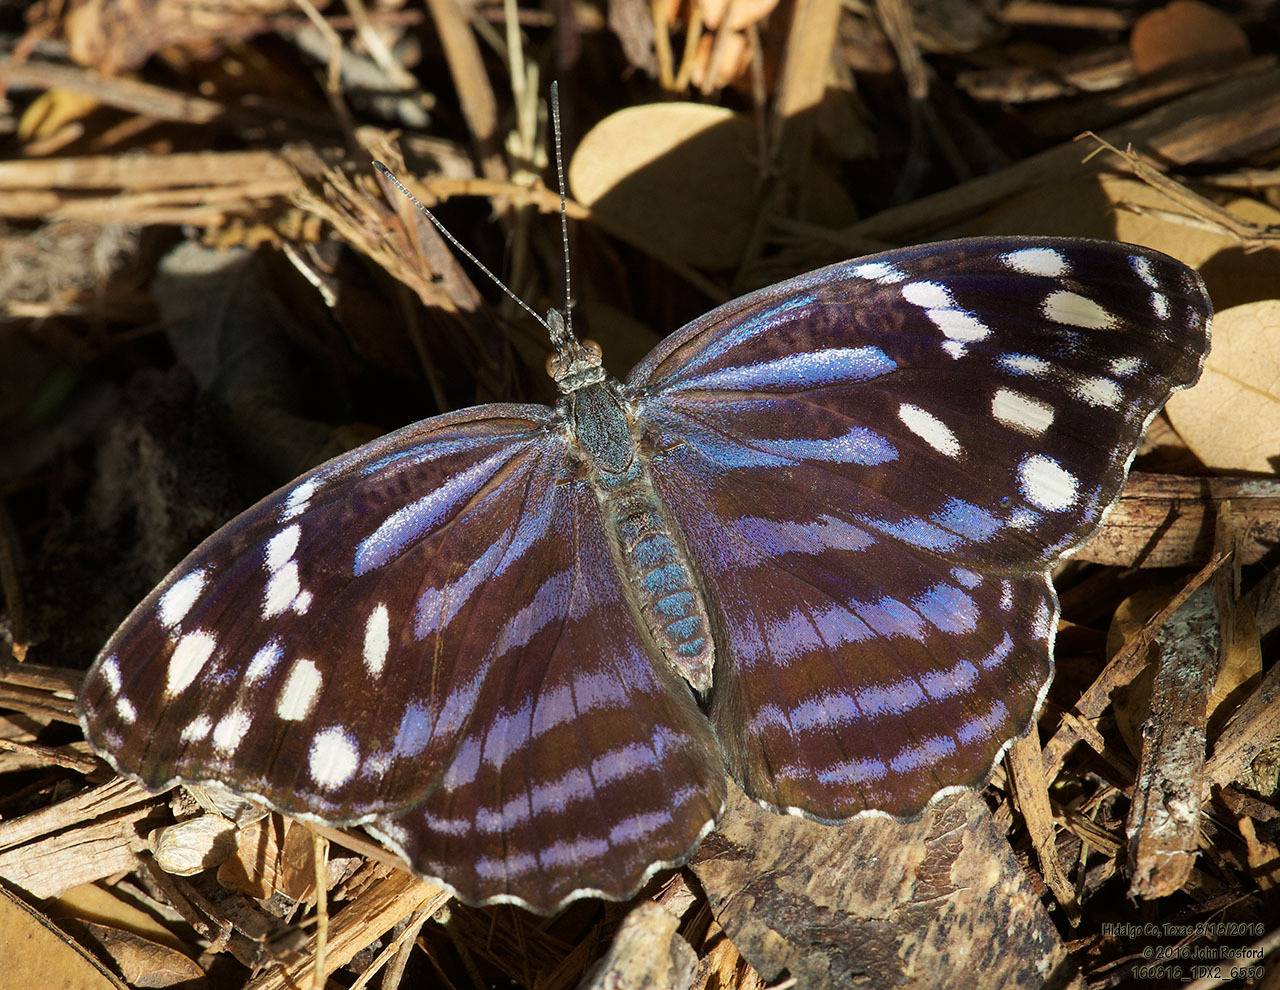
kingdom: Animalia
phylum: Arthropoda
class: Insecta
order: Lepidoptera
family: Nymphalidae
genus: Myscelia
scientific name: Myscelia ethusa
